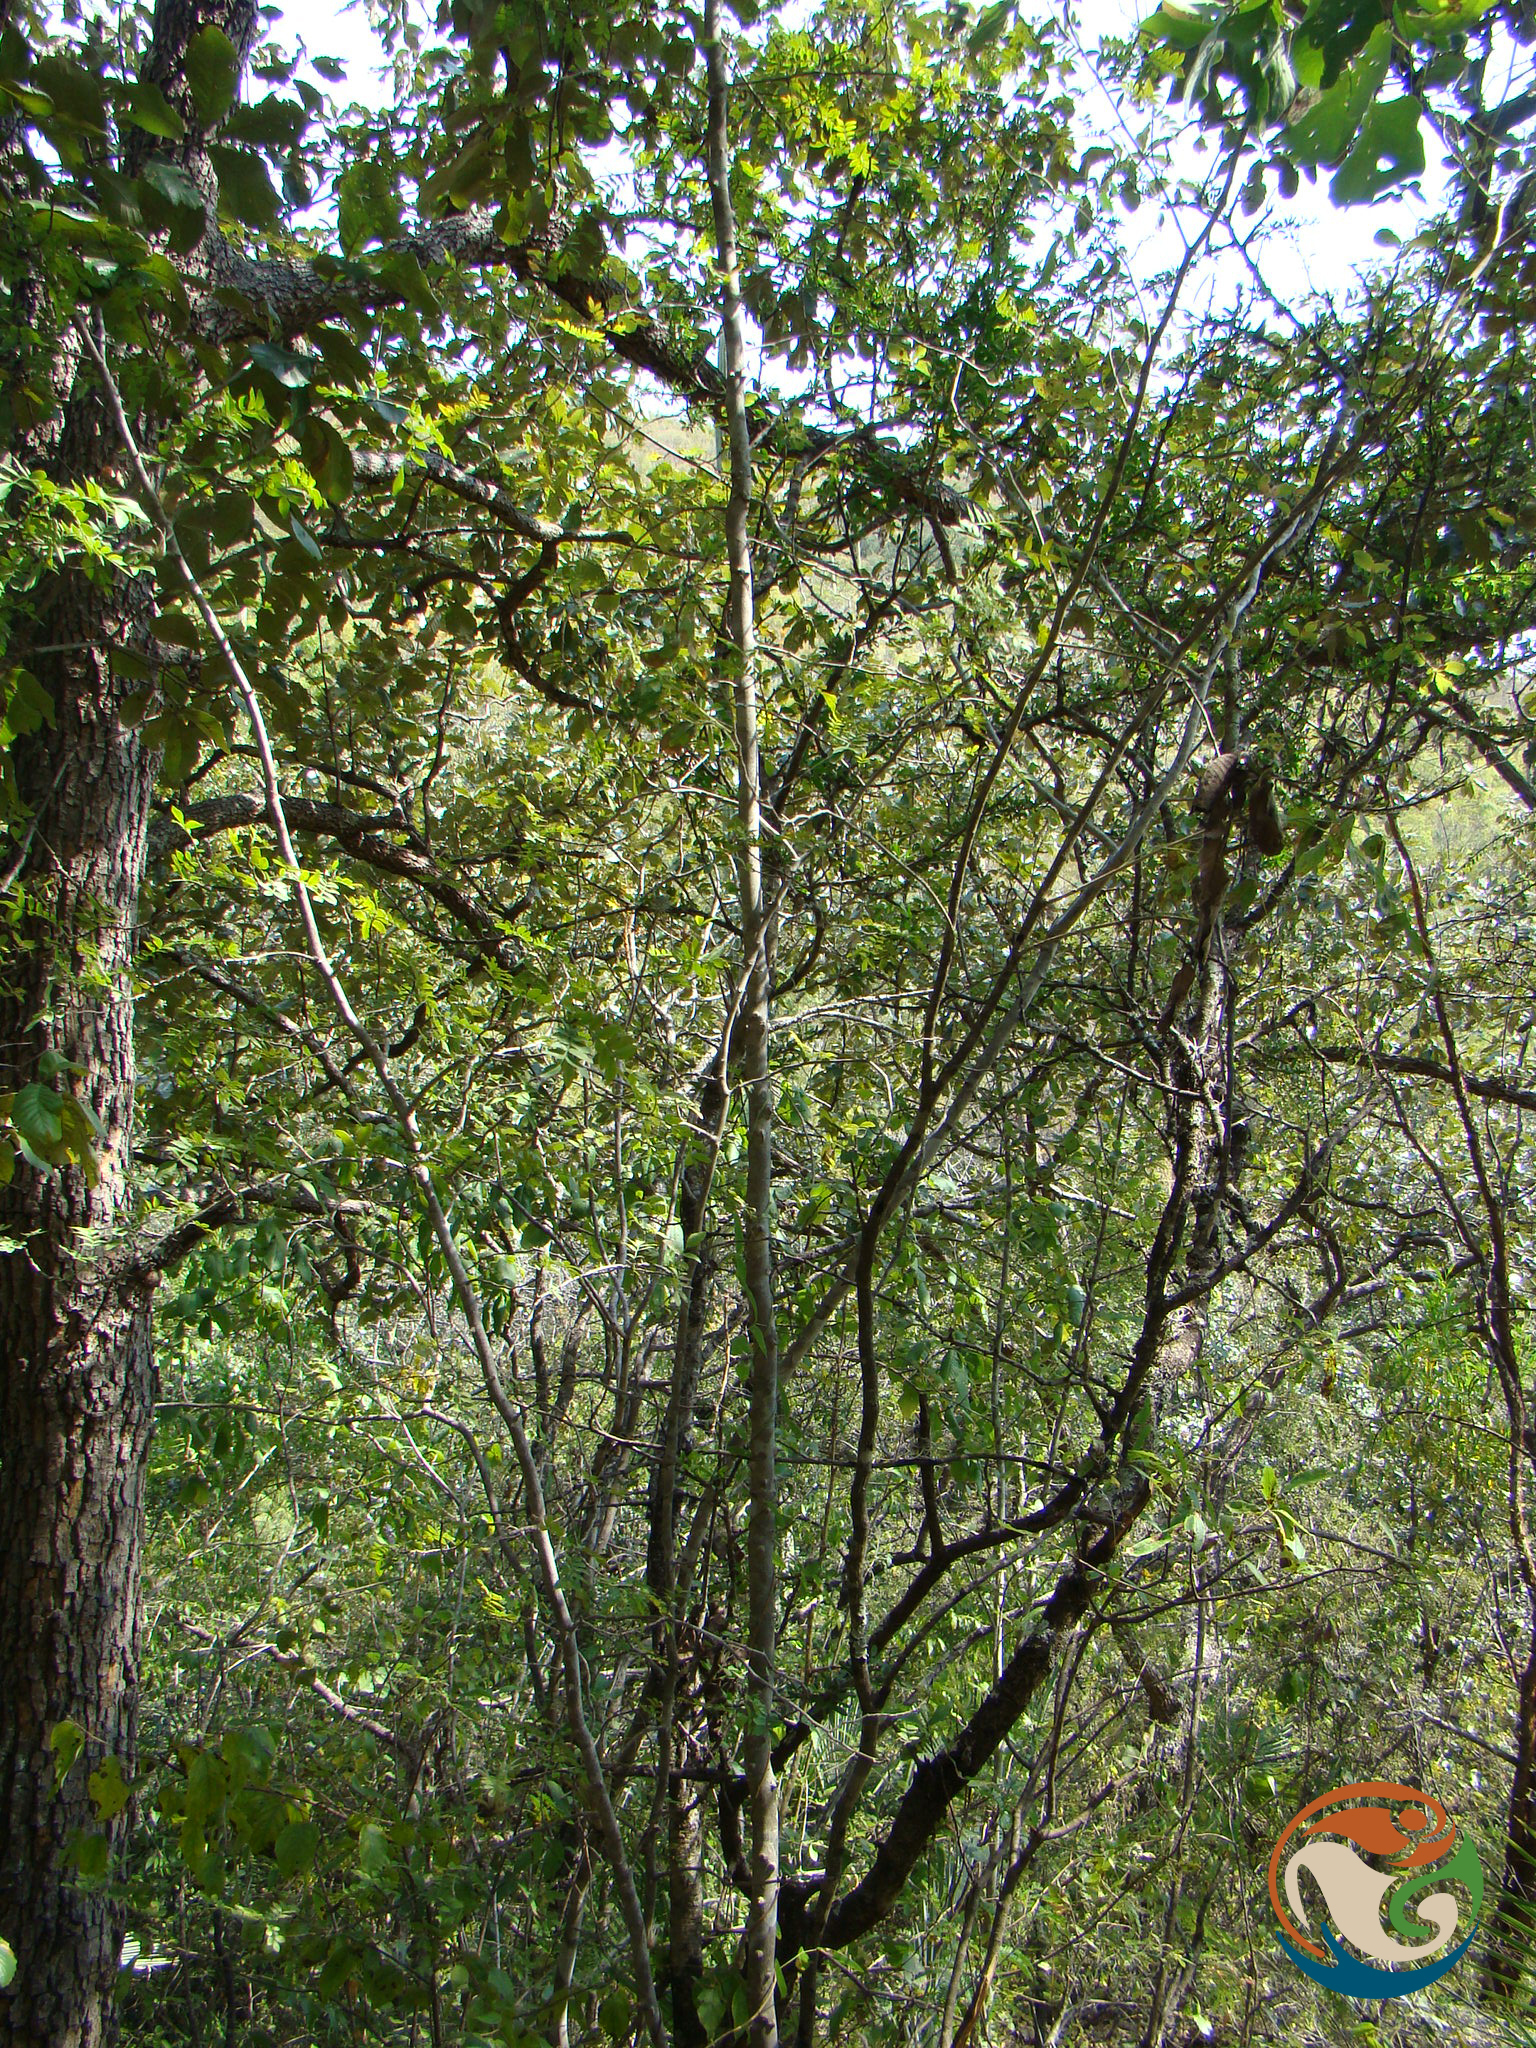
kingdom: Plantae
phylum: Tracheophyta
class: Magnoliopsida
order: Sapindales
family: Rutaceae
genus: Zanthoxylum
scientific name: Zanthoxylum fagara
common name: Lime prickly-ash
